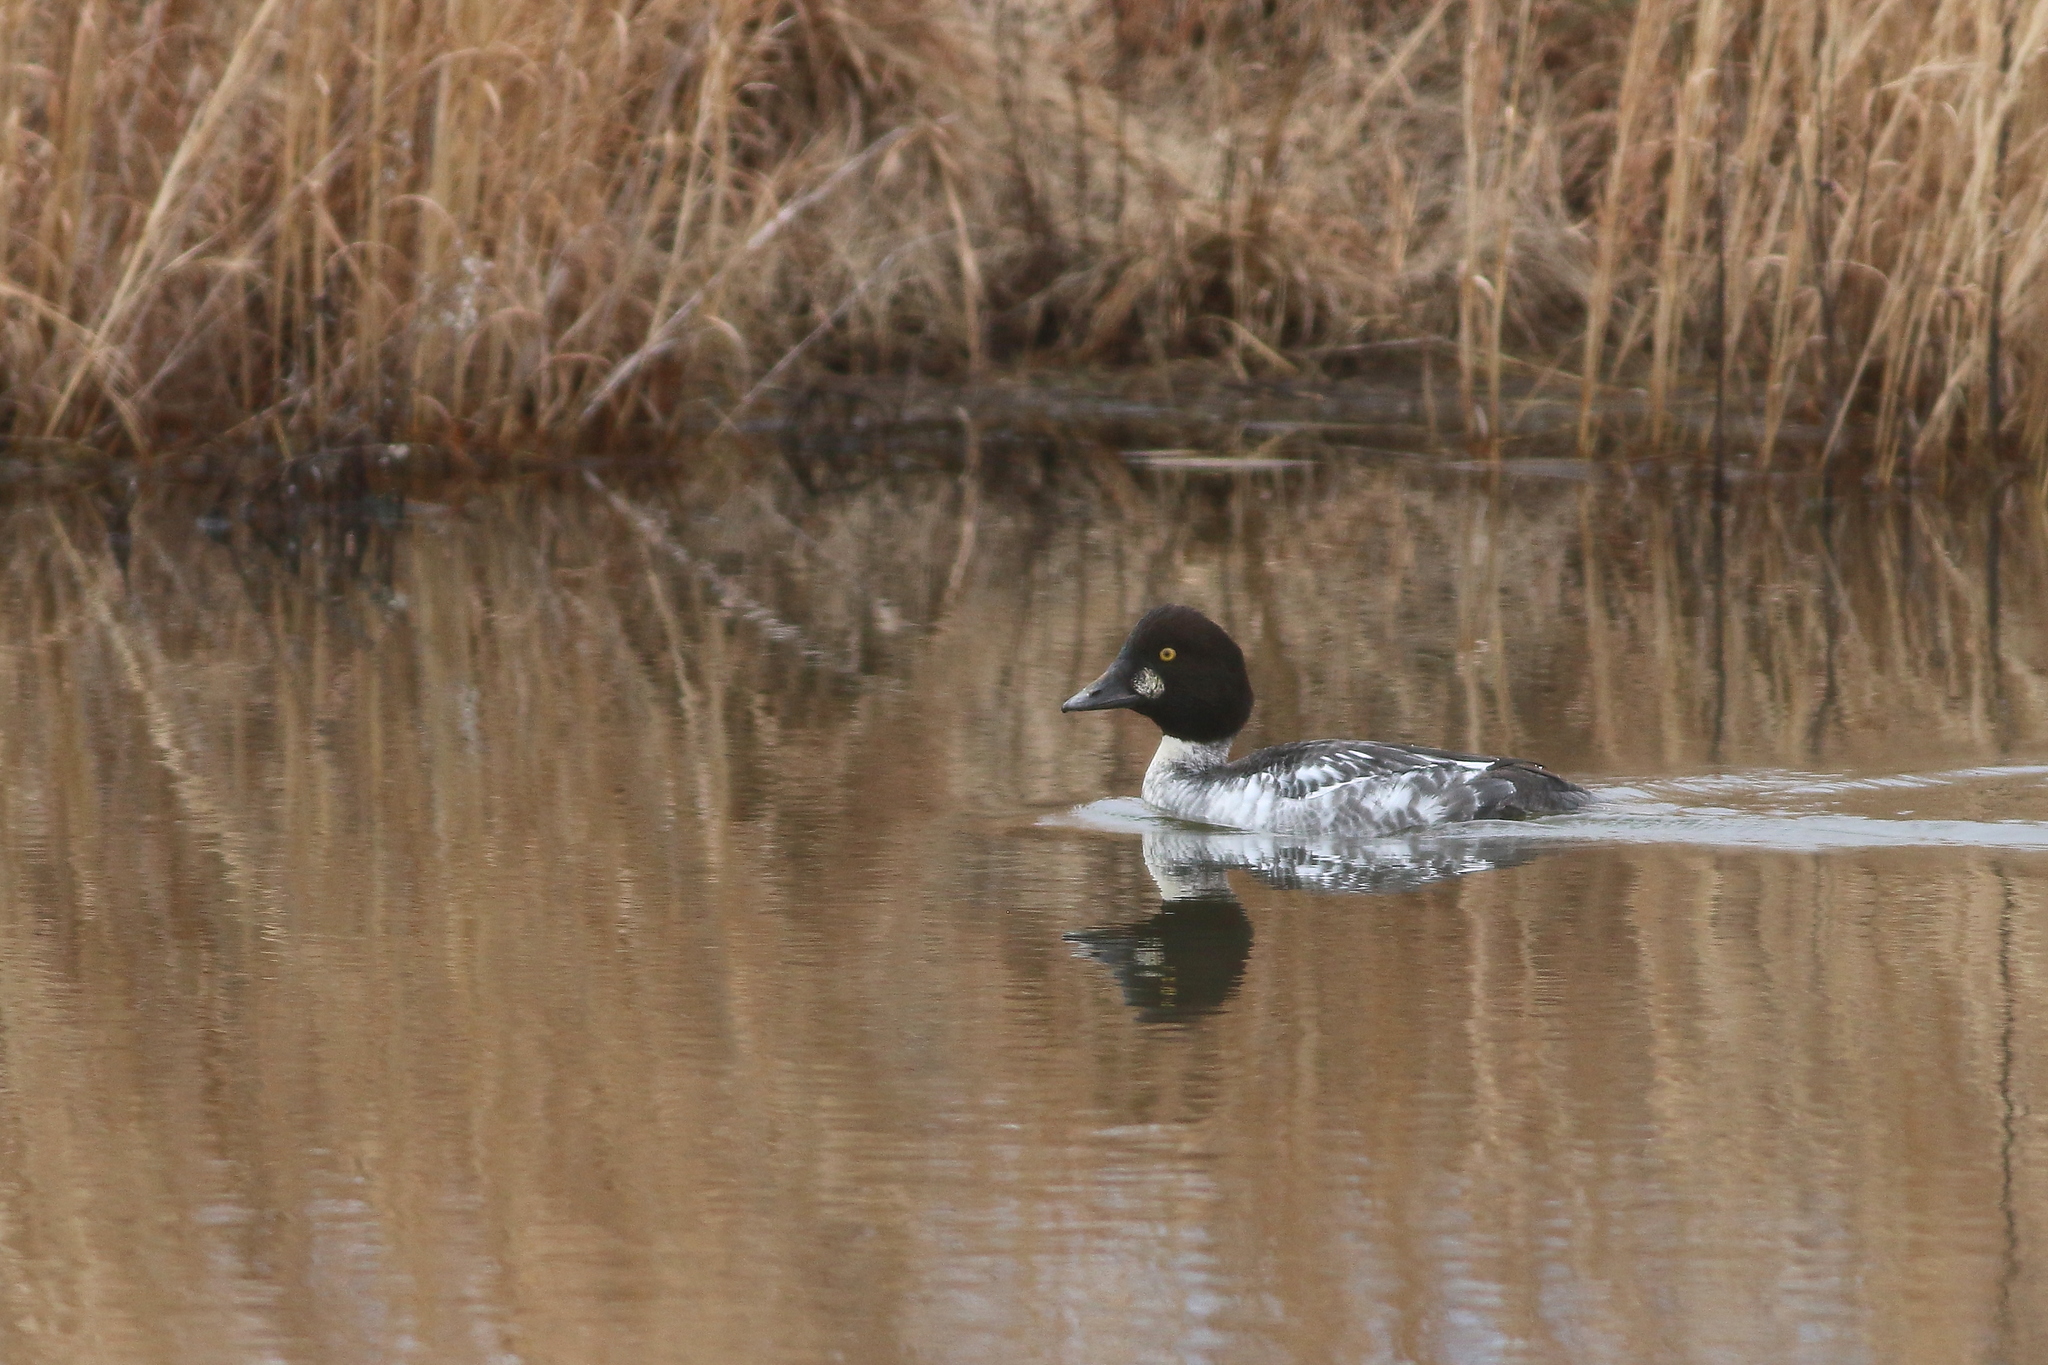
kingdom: Animalia
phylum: Chordata
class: Aves
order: Anseriformes
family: Anatidae
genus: Bucephala
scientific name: Bucephala clangula
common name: Common goldeneye
